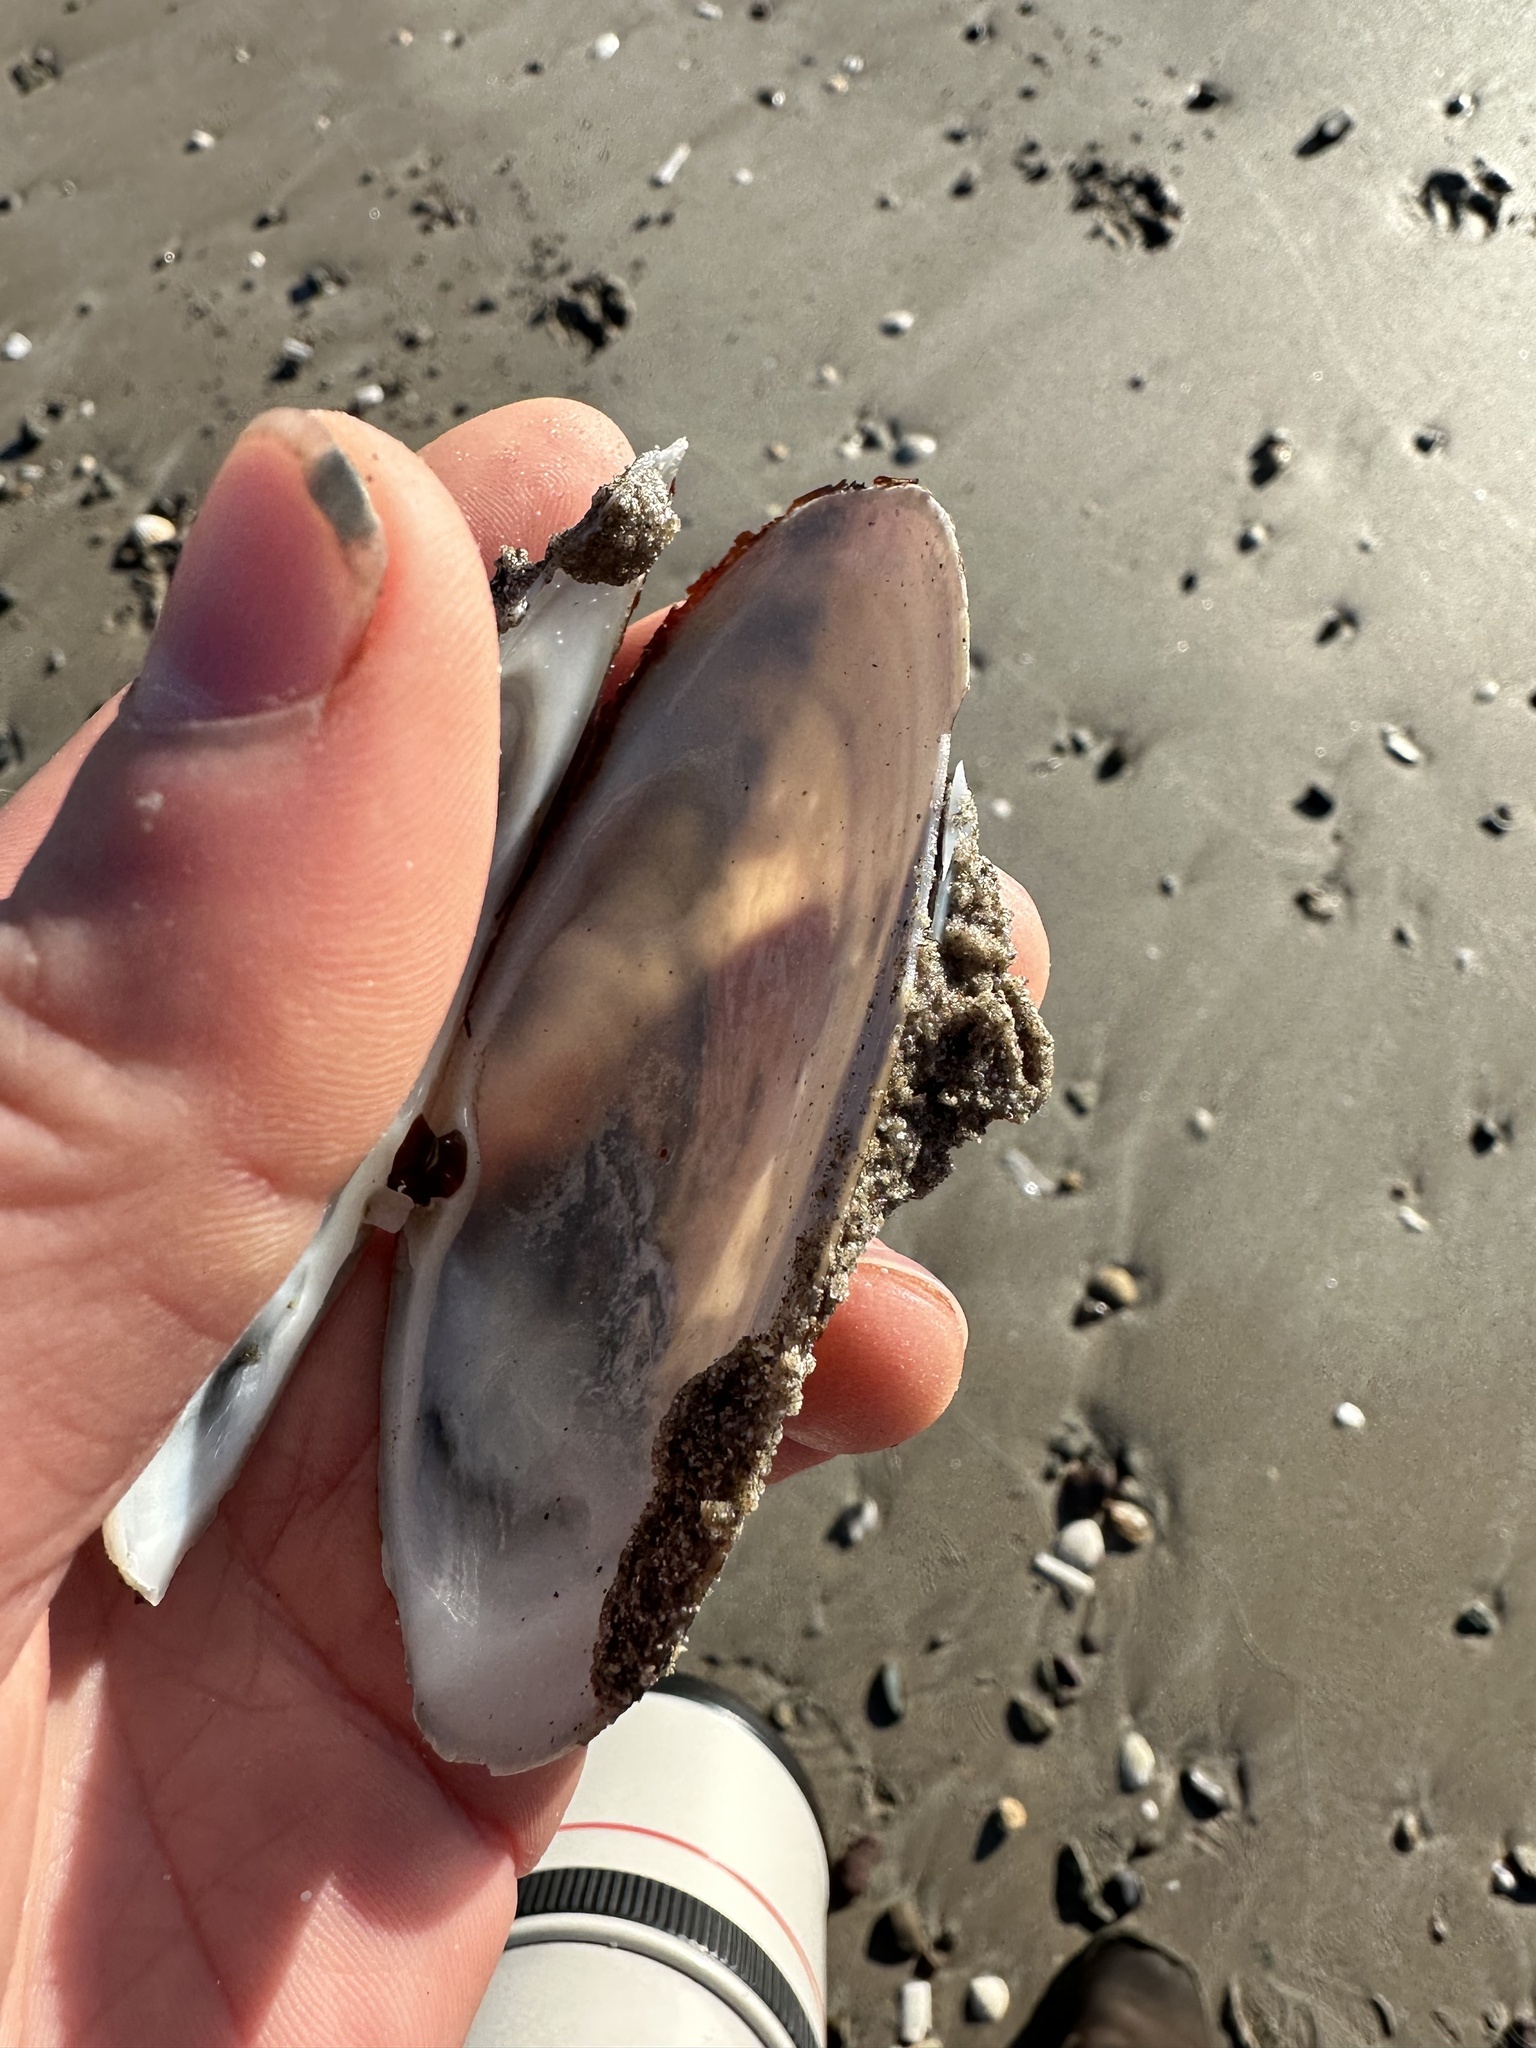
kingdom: Animalia
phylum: Mollusca
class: Bivalvia
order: Venerida
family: Mactridae
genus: Lutraria
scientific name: Lutraria lutraria
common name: Common otter shell
